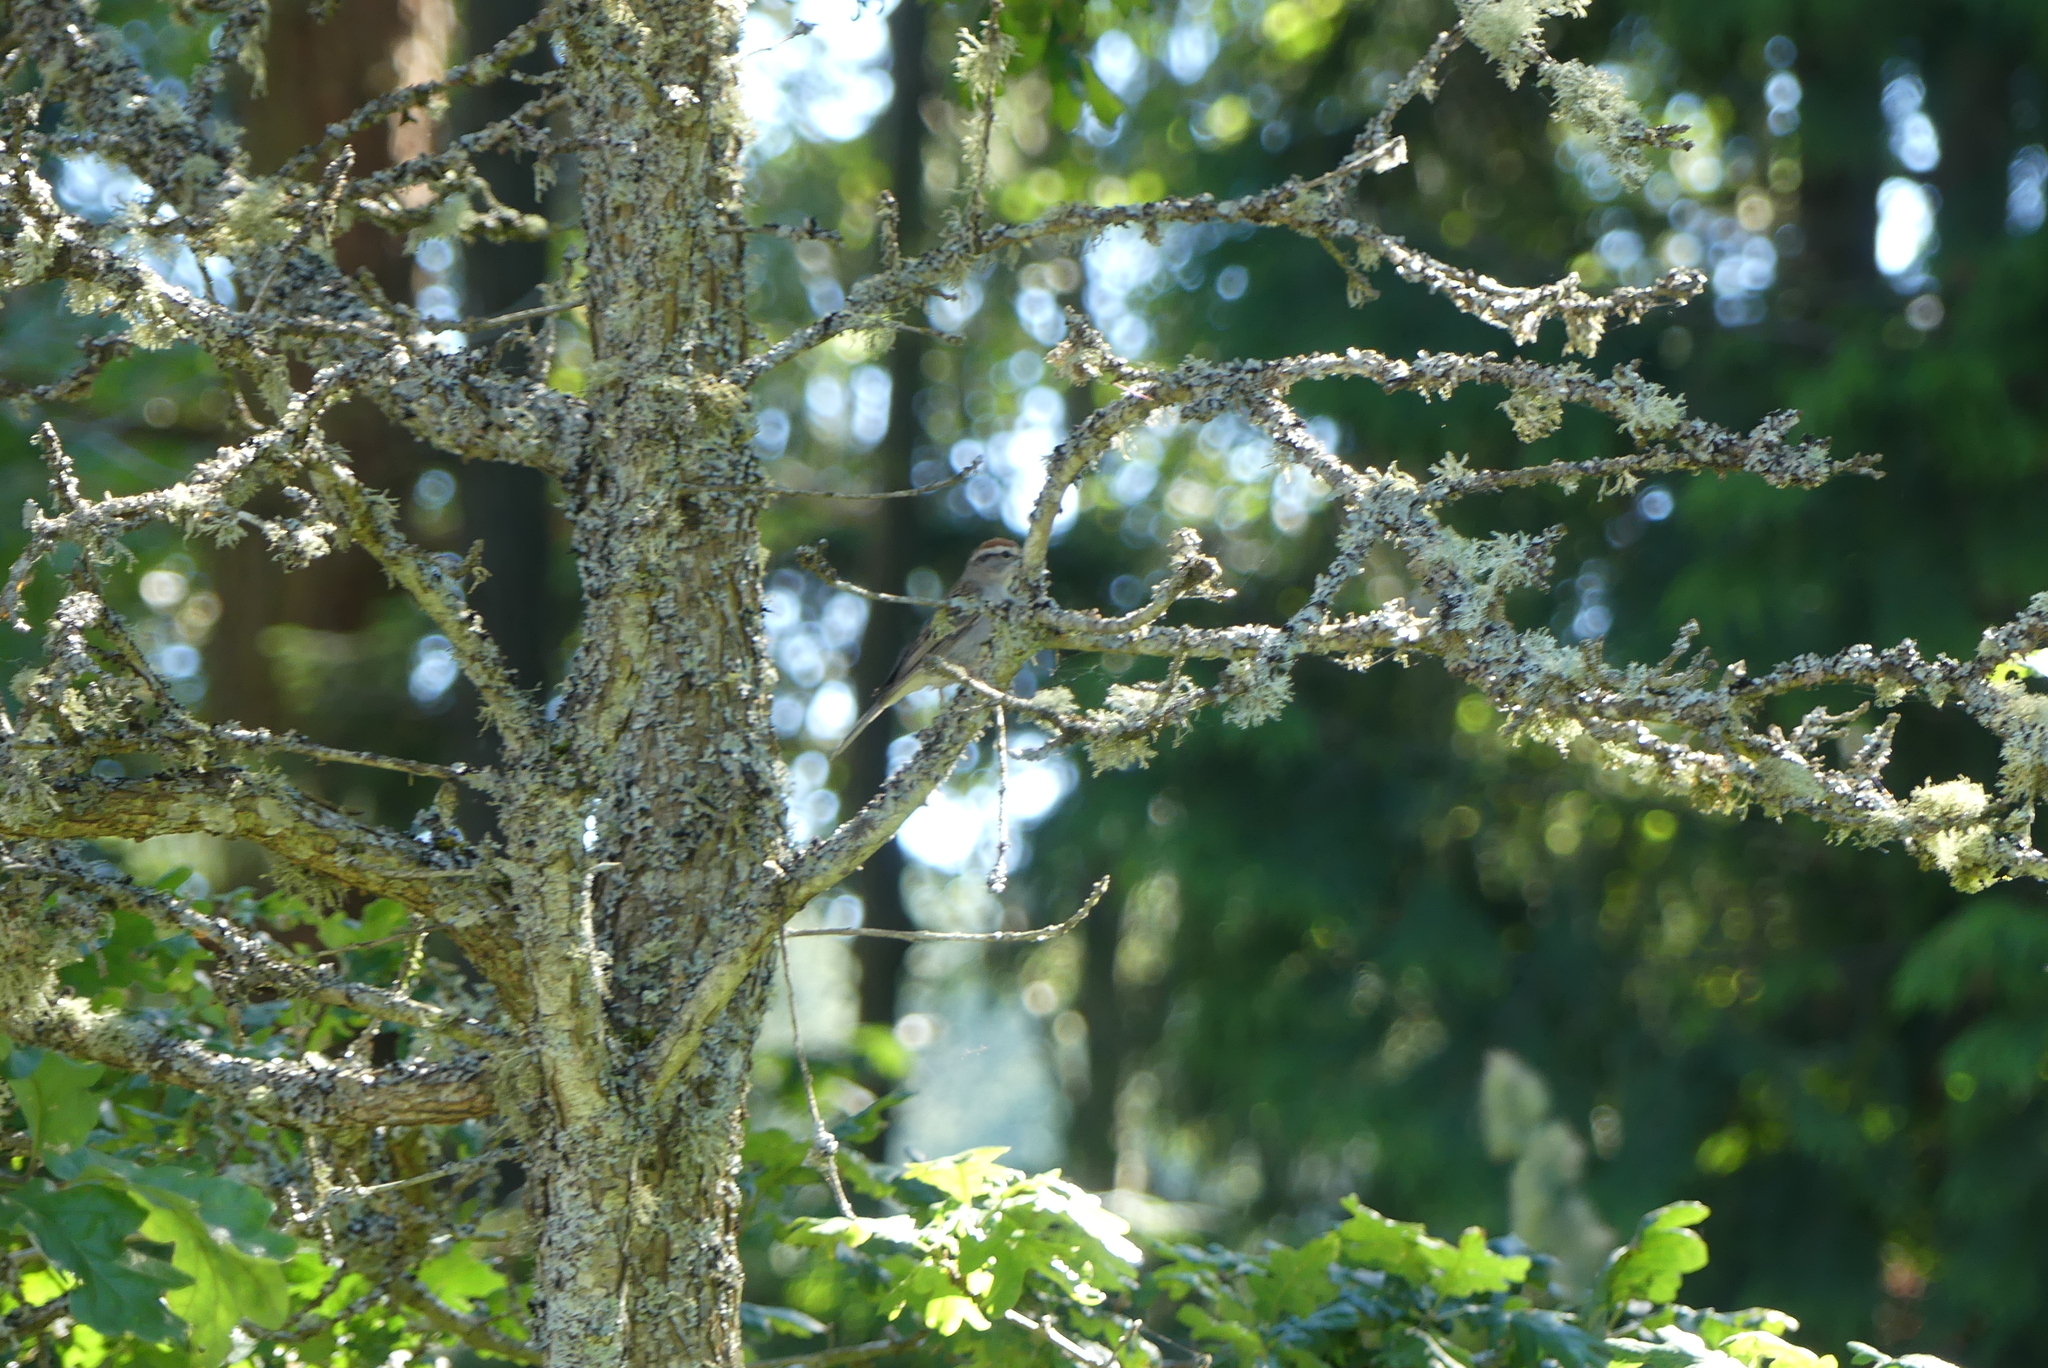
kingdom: Animalia
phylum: Chordata
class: Aves
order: Passeriformes
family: Passerellidae
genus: Spizella
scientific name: Spizella passerina
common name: Chipping sparrow
